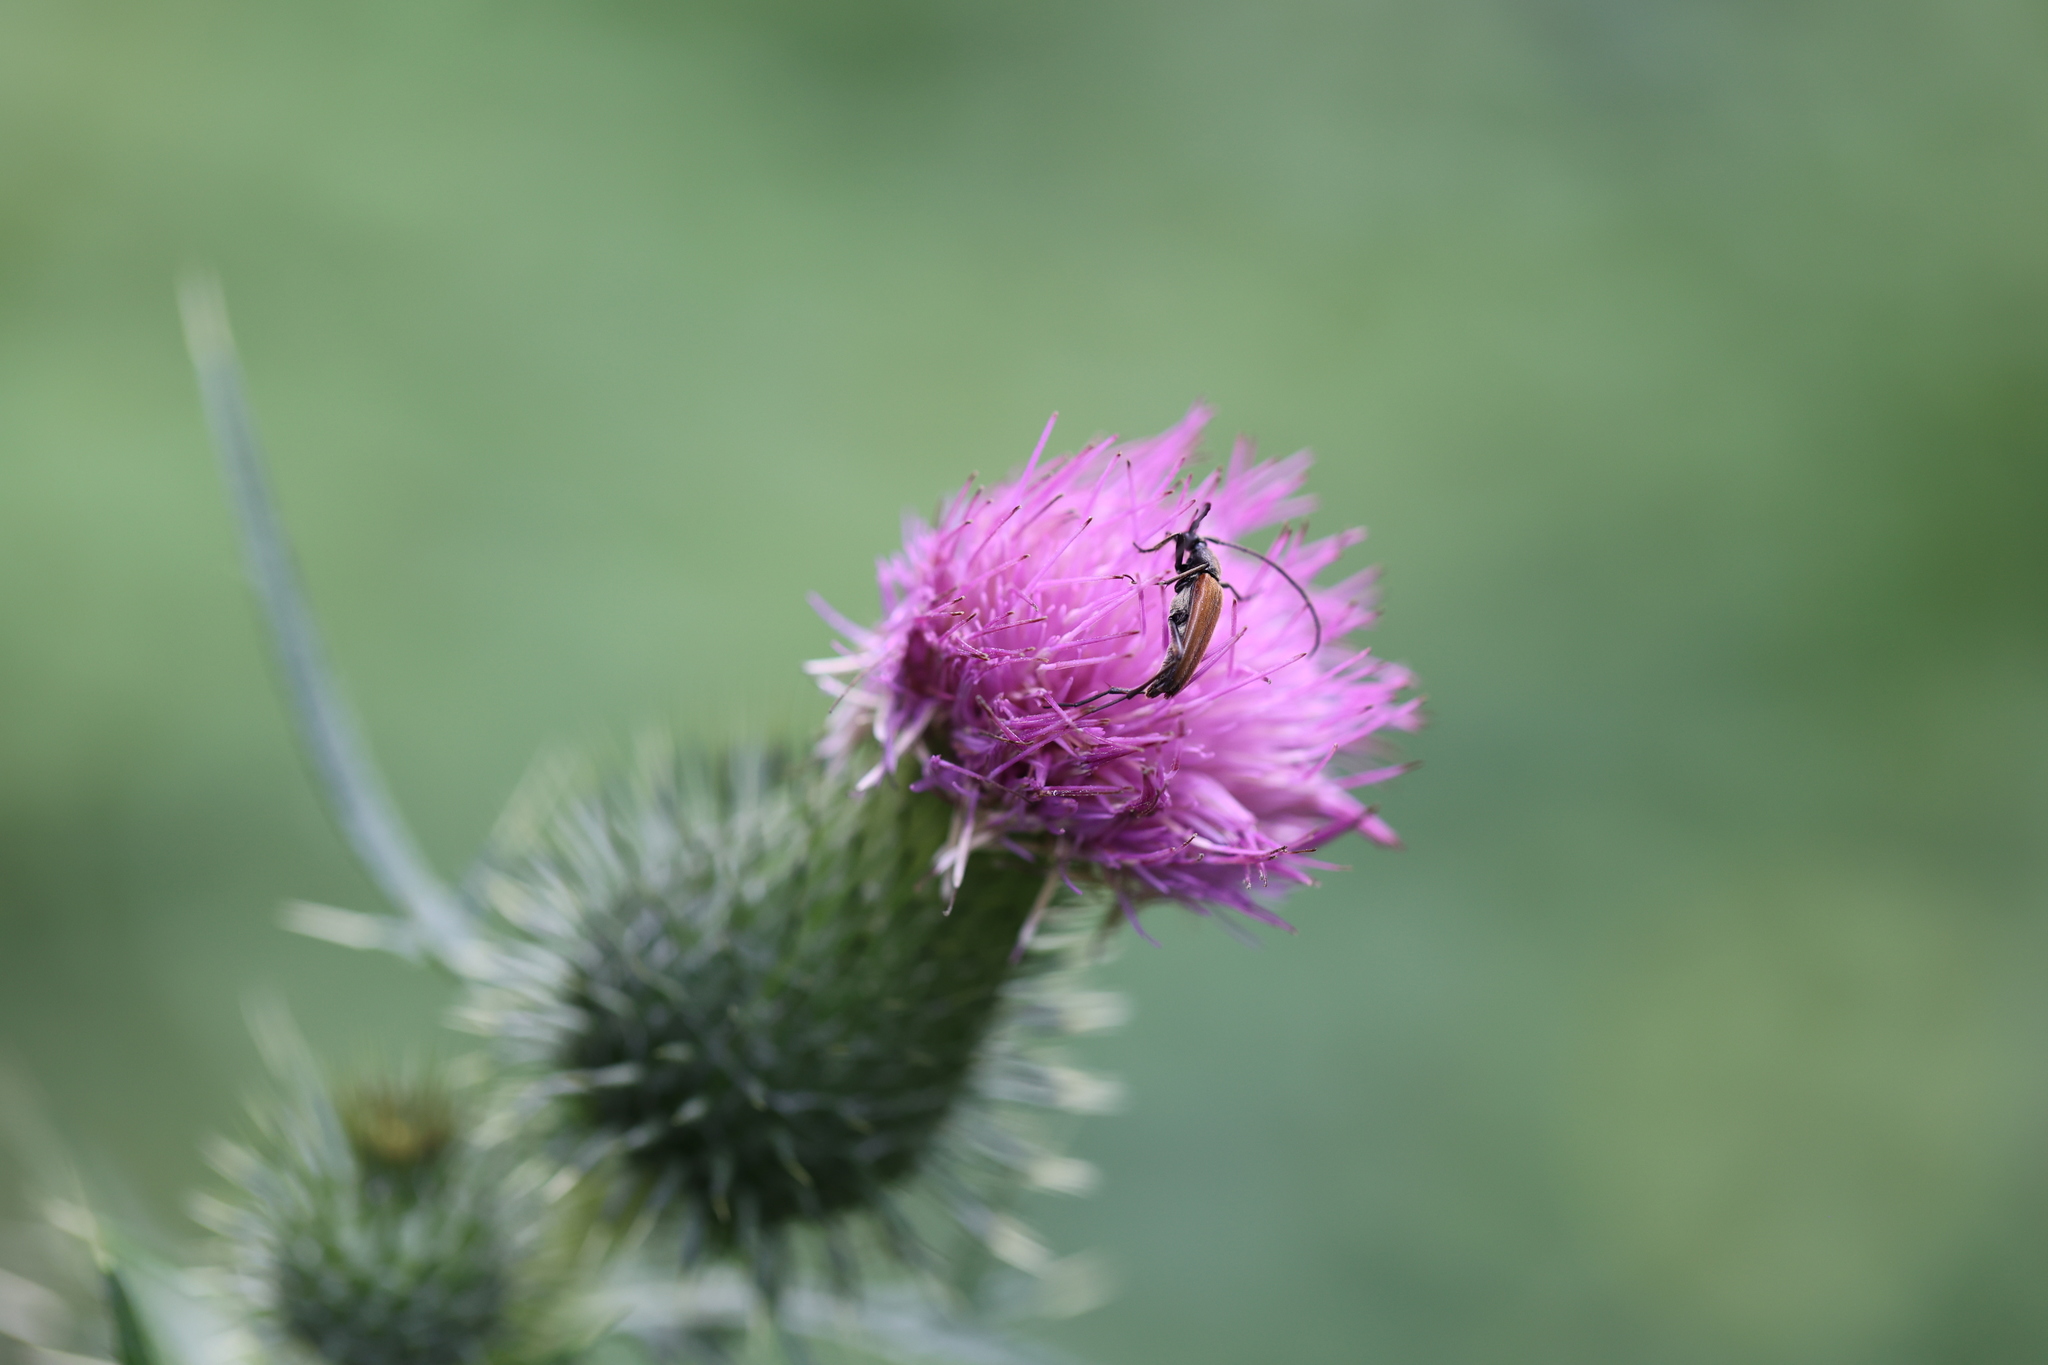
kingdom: Animalia
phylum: Arthropoda
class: Insecta
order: Coleoptera
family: Cerambycidae
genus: Stenurella
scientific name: Stenurella melanura
